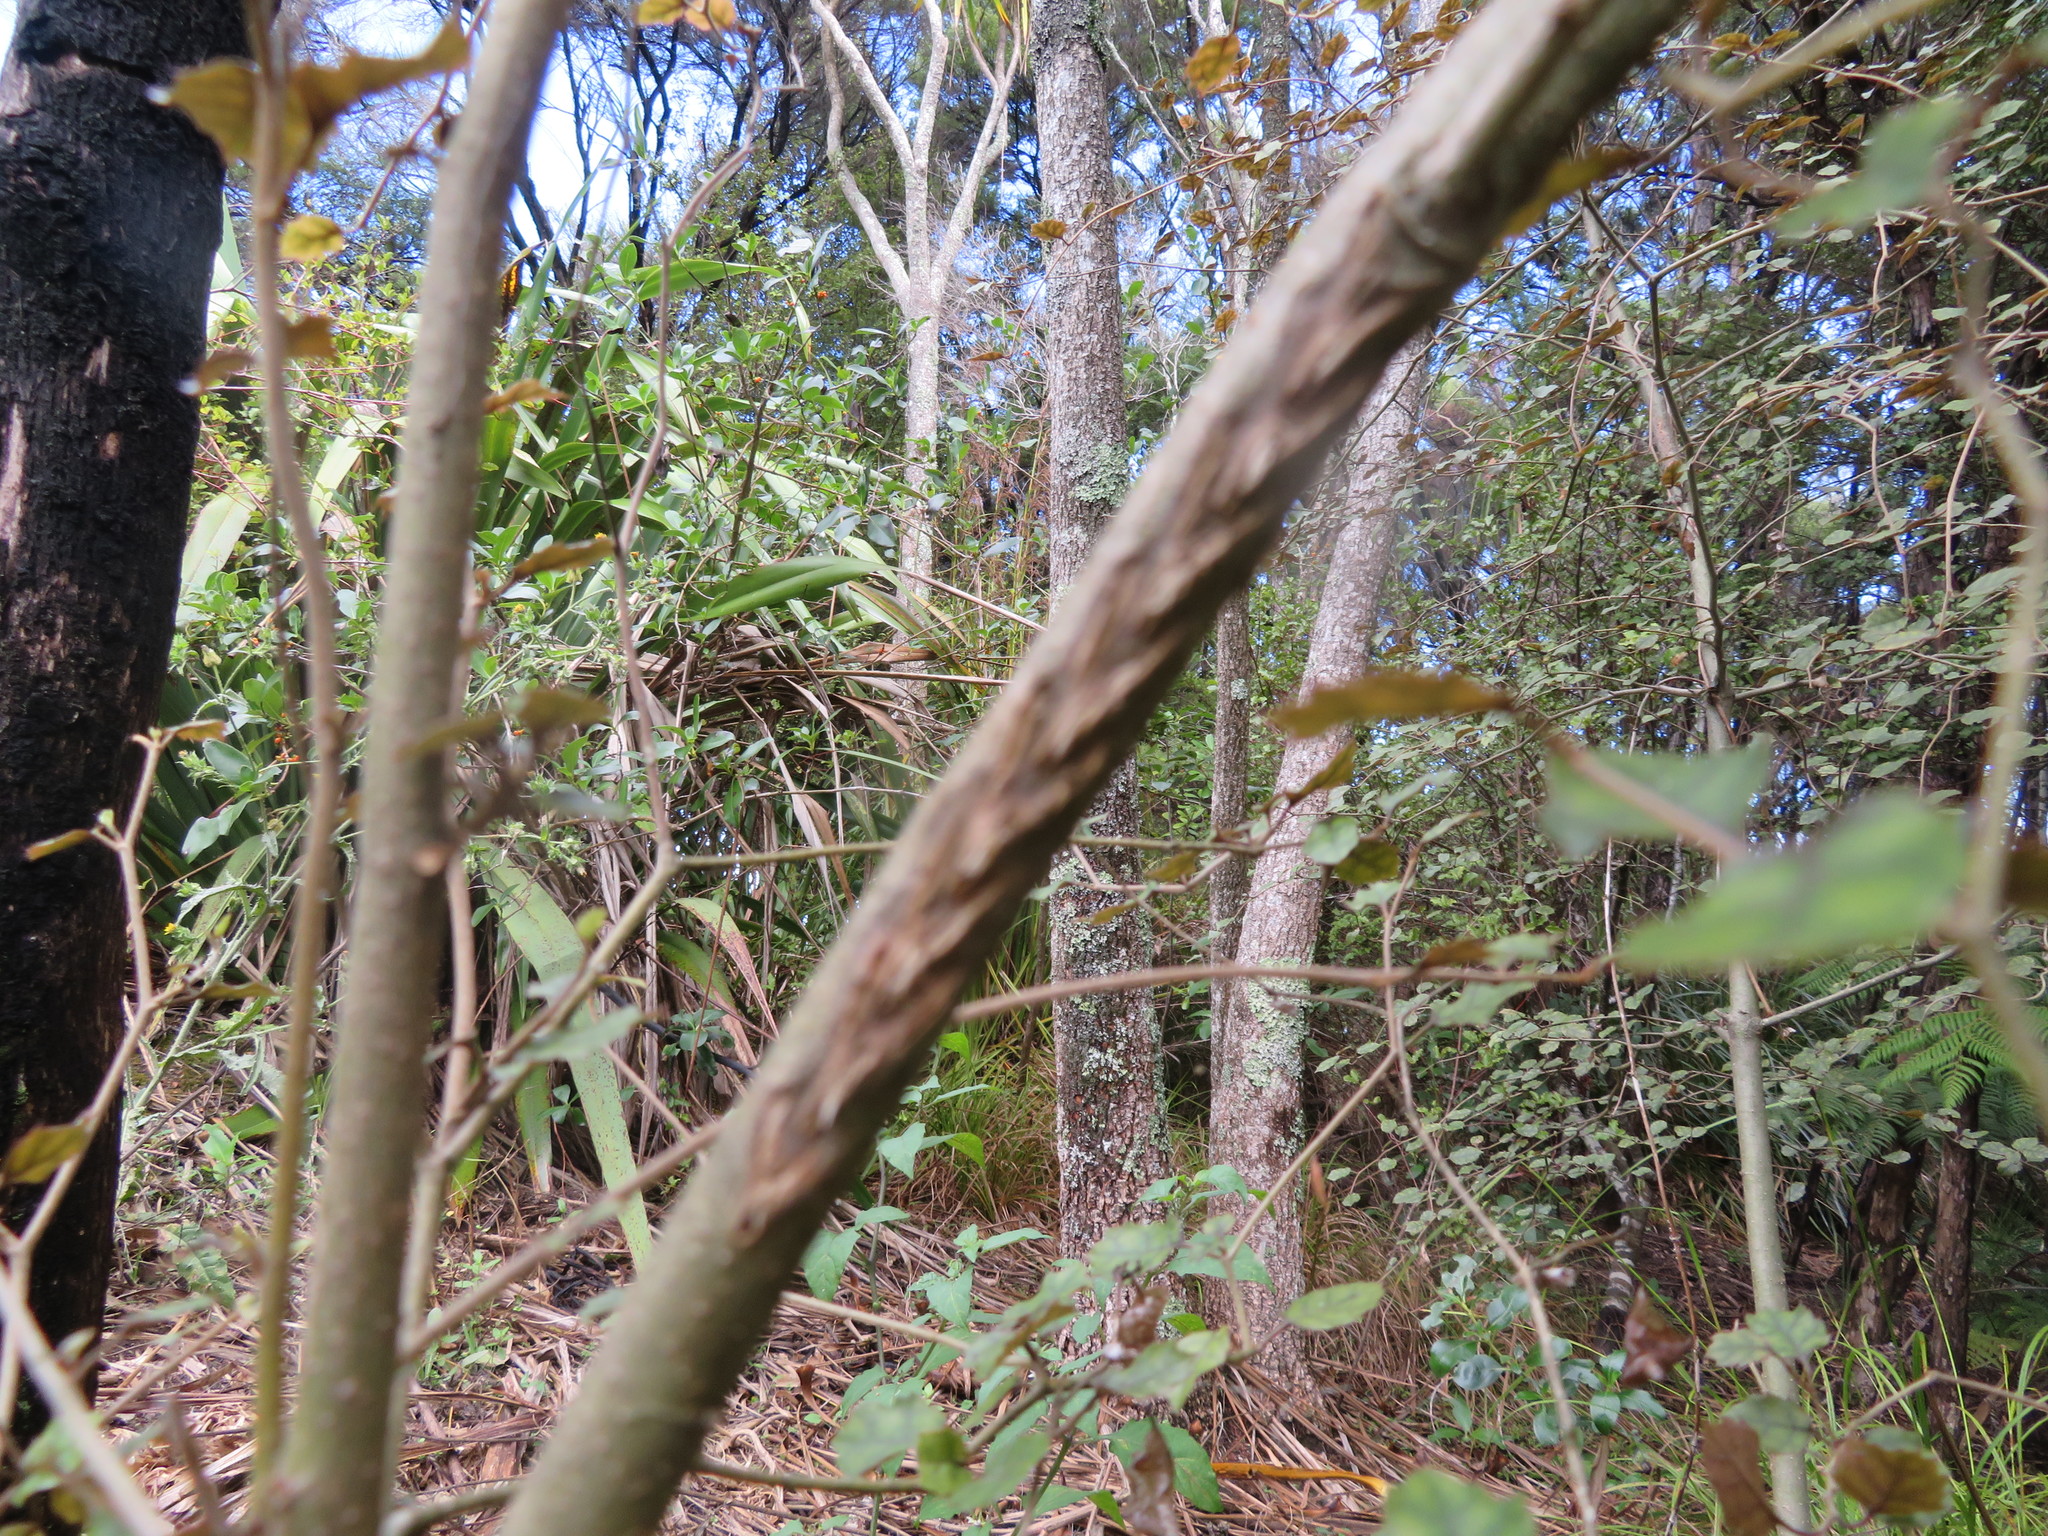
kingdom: Plantae
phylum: Tracheophyta
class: Magnoliopsida
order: Asterales
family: Rousseaceae
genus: Carpodetus
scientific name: Carpodetus serratus
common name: White mapau
